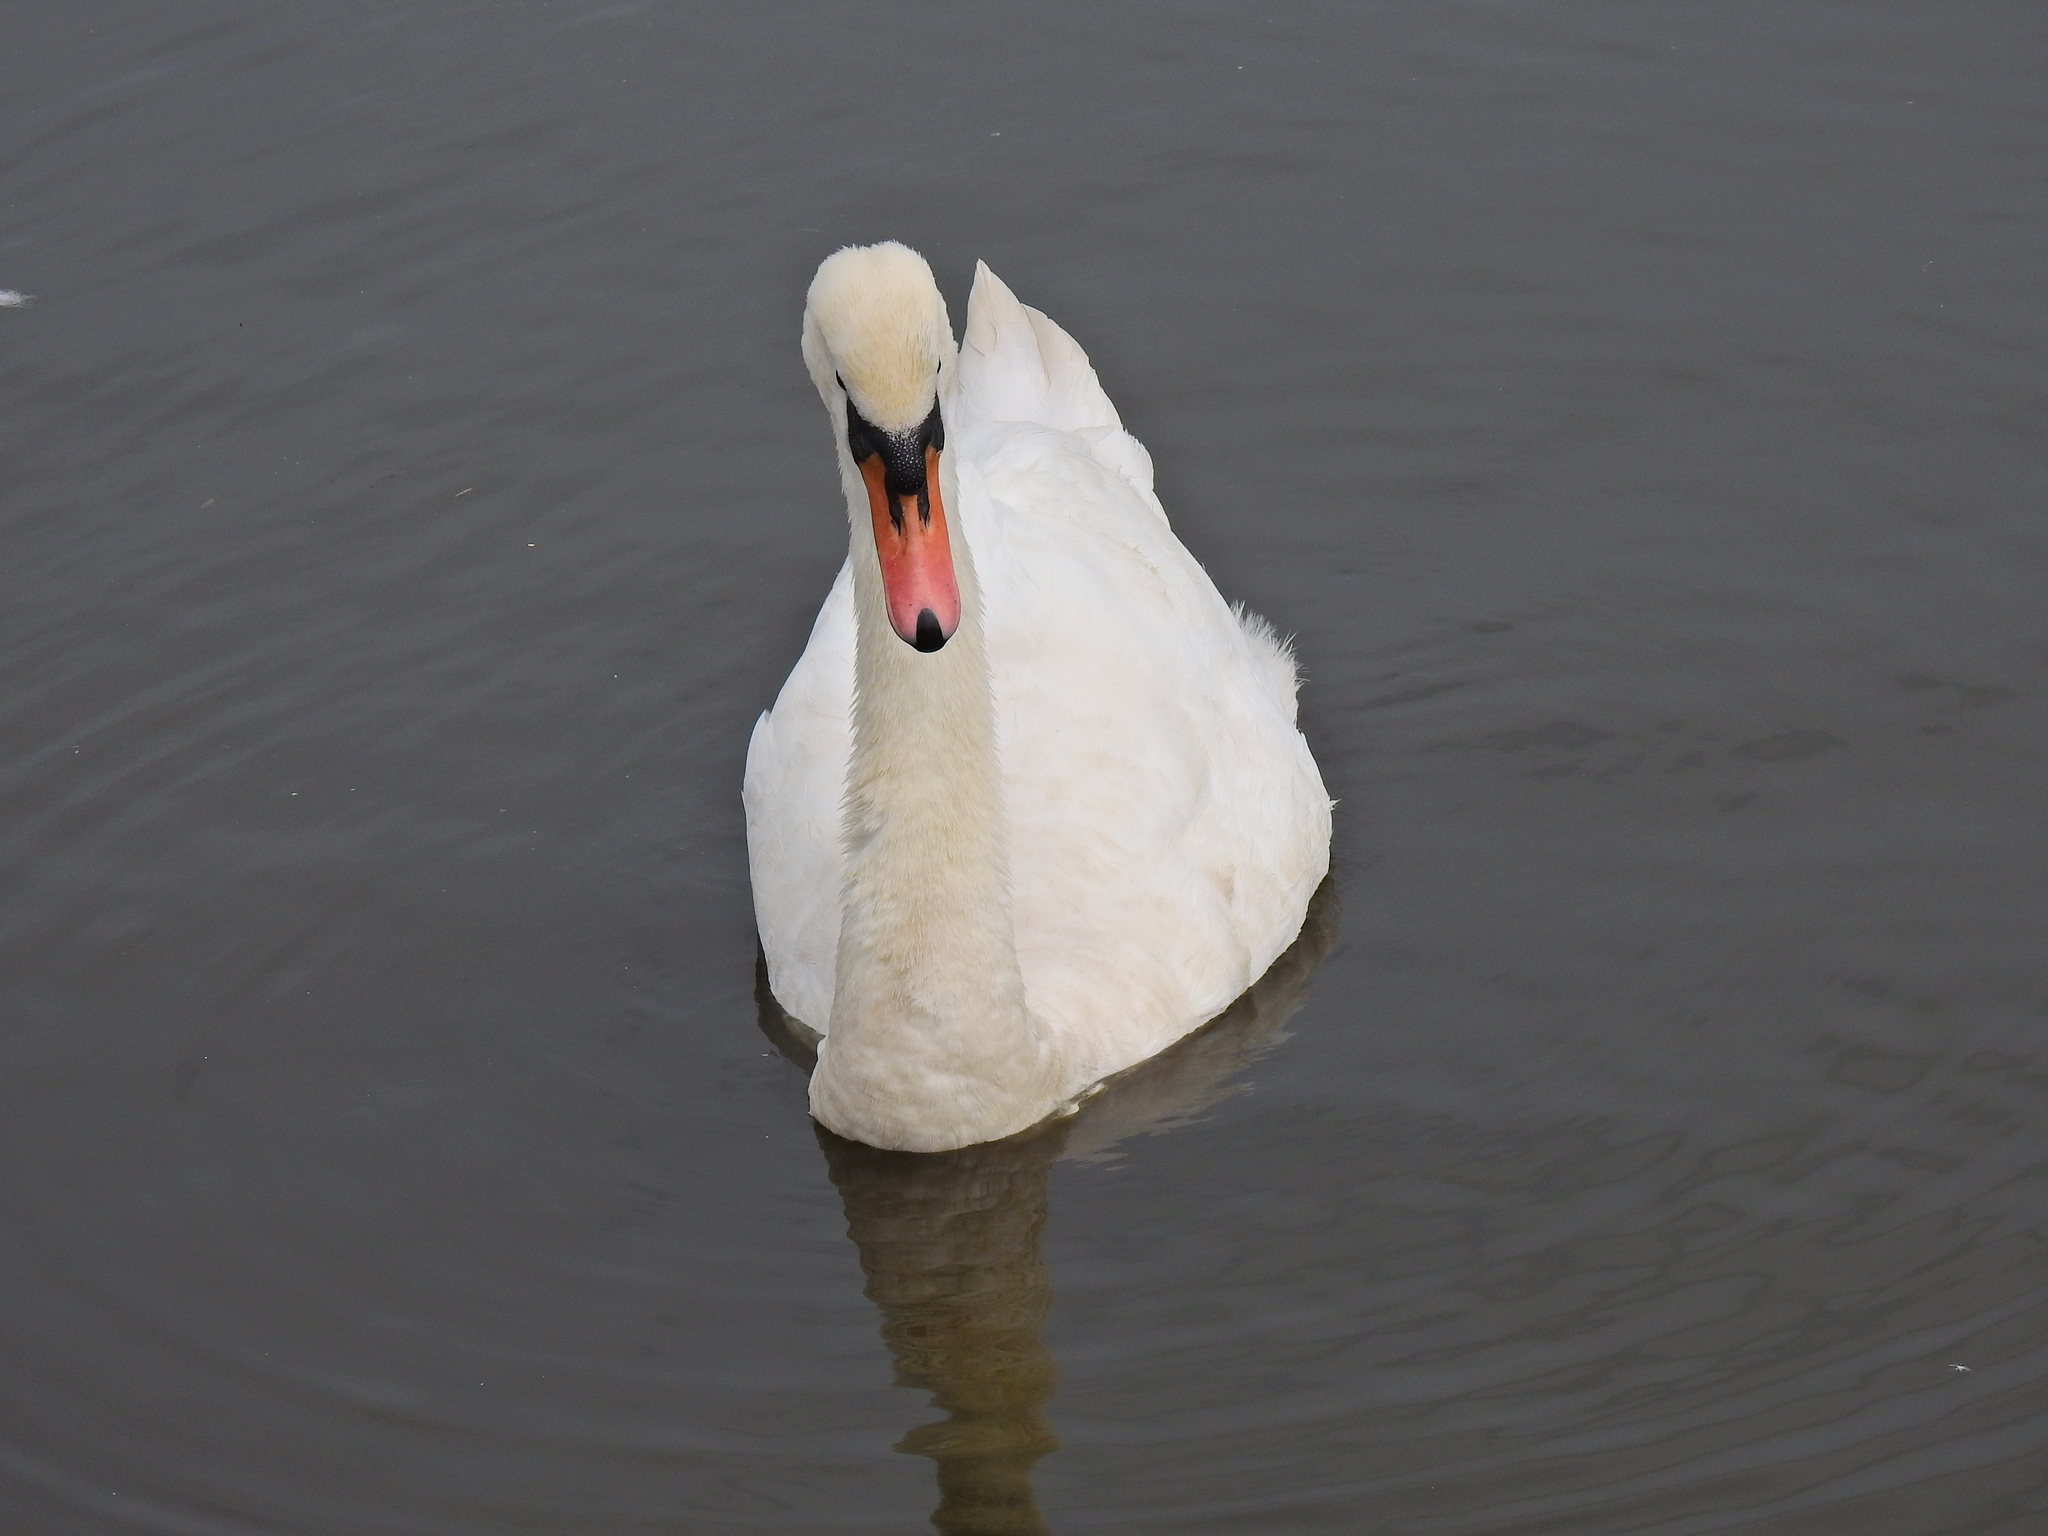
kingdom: Animalia
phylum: Chordata
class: Aves
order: Anseriformes
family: Anatidae
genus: Cygnus
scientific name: Cygnus olor
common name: Mute swan
